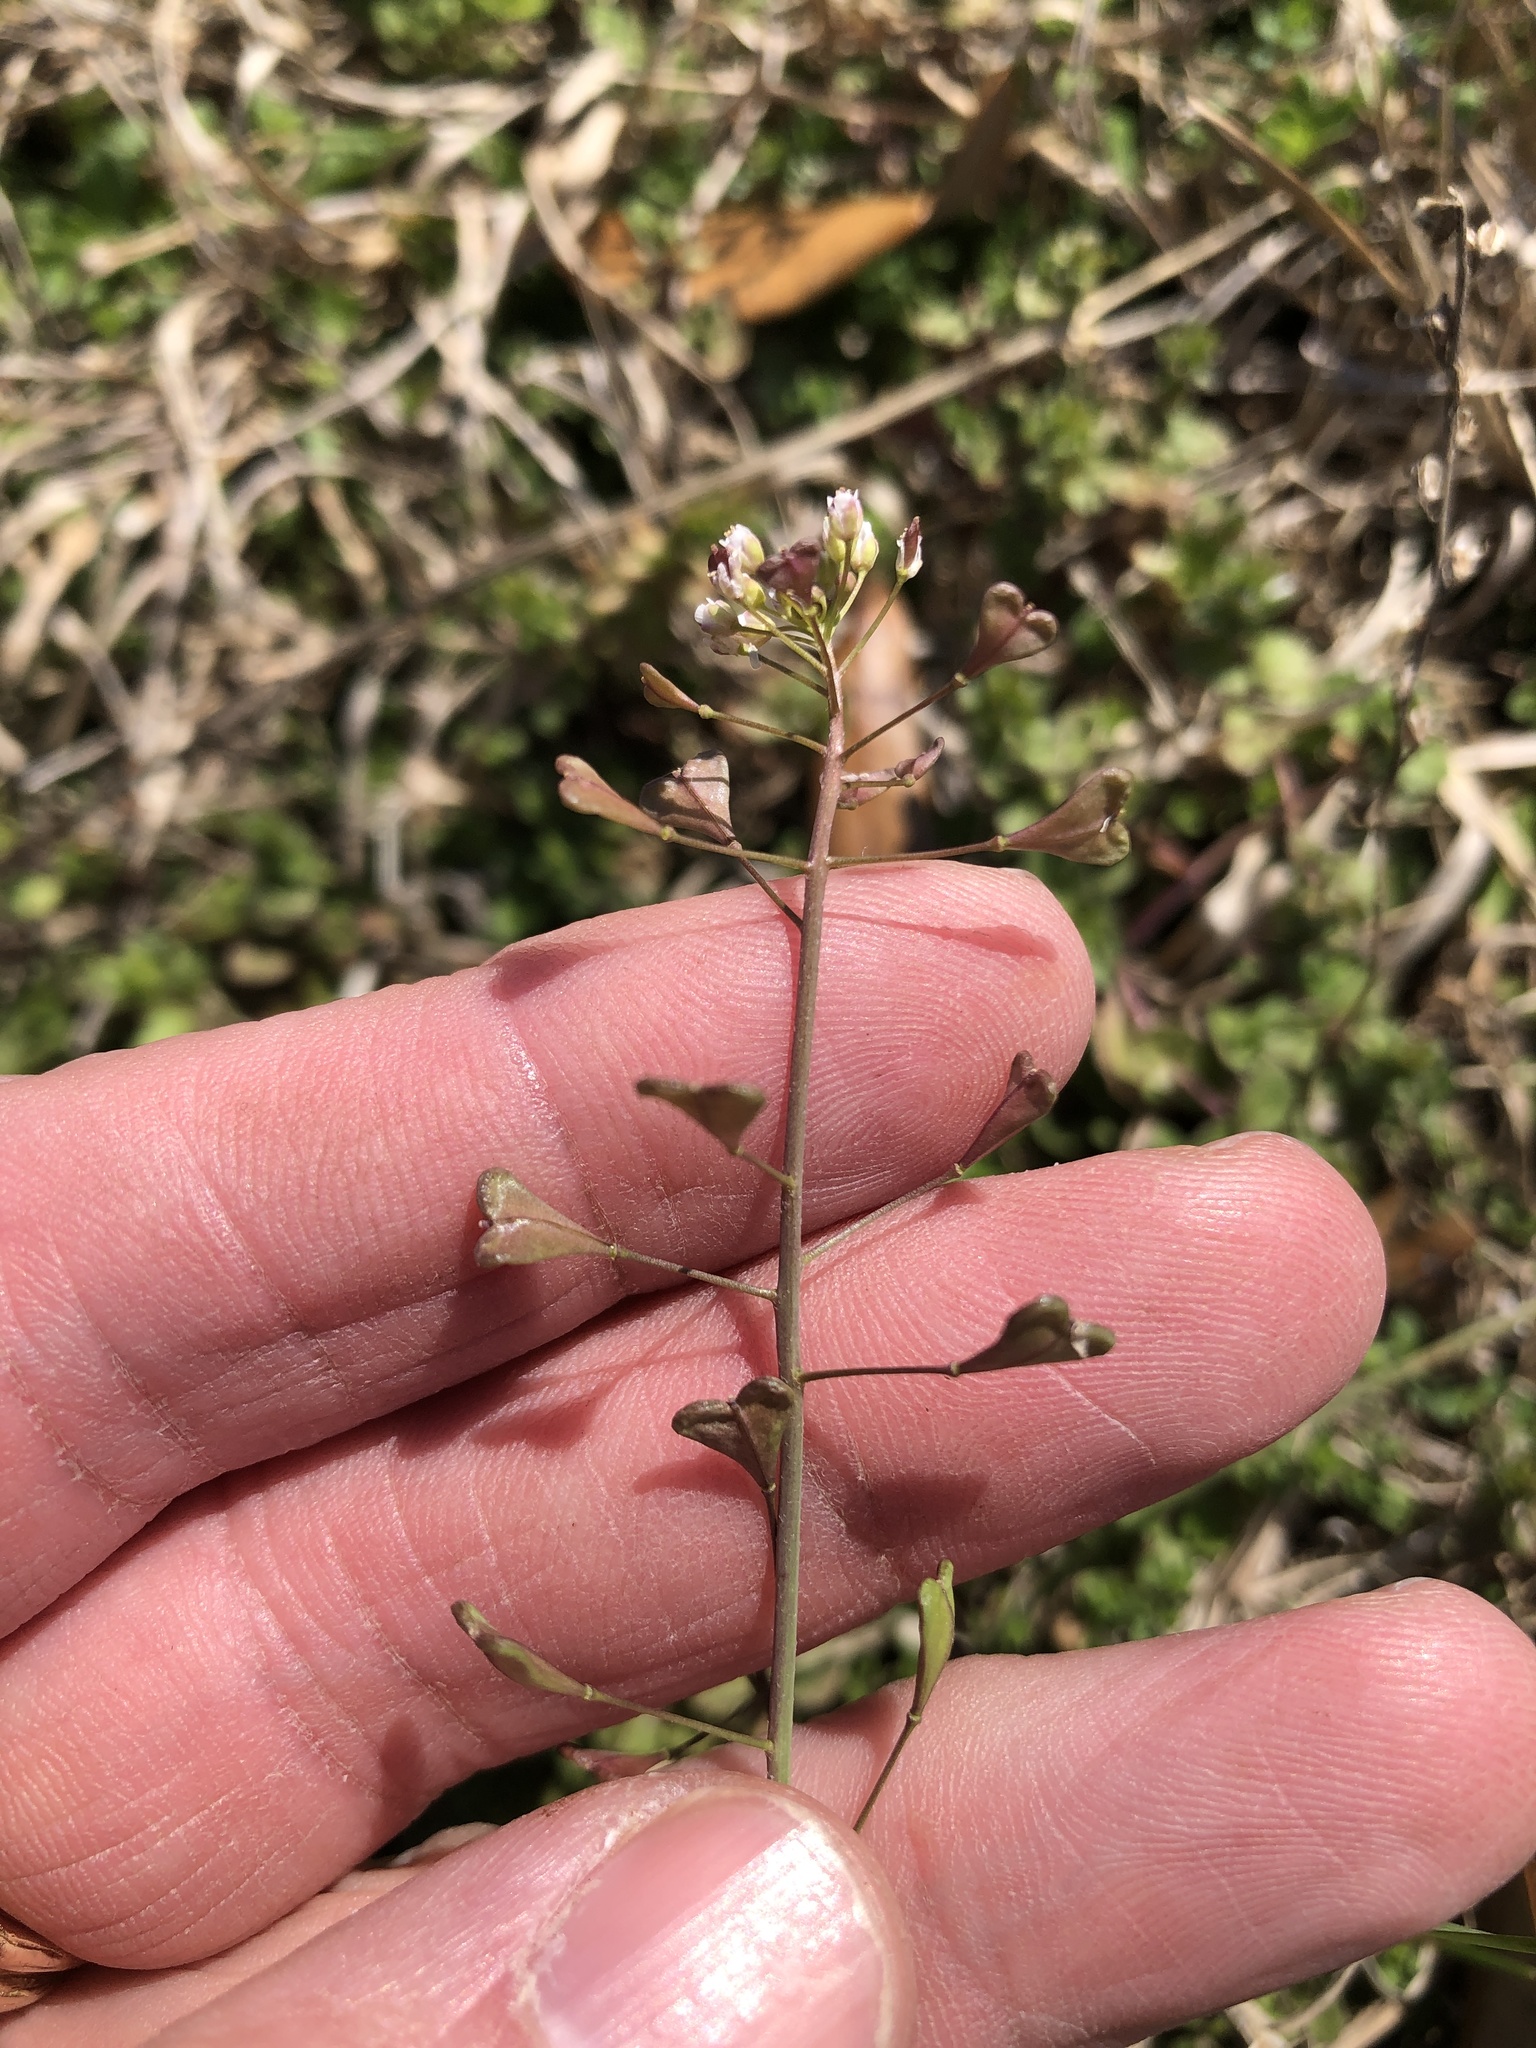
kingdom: Plantae
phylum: Tracheophyta
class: Magnoliopsida
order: Brassicales
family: Brassicaceae
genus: Capsella
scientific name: Capsella bursa-pastoris
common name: Shepherd's purse
